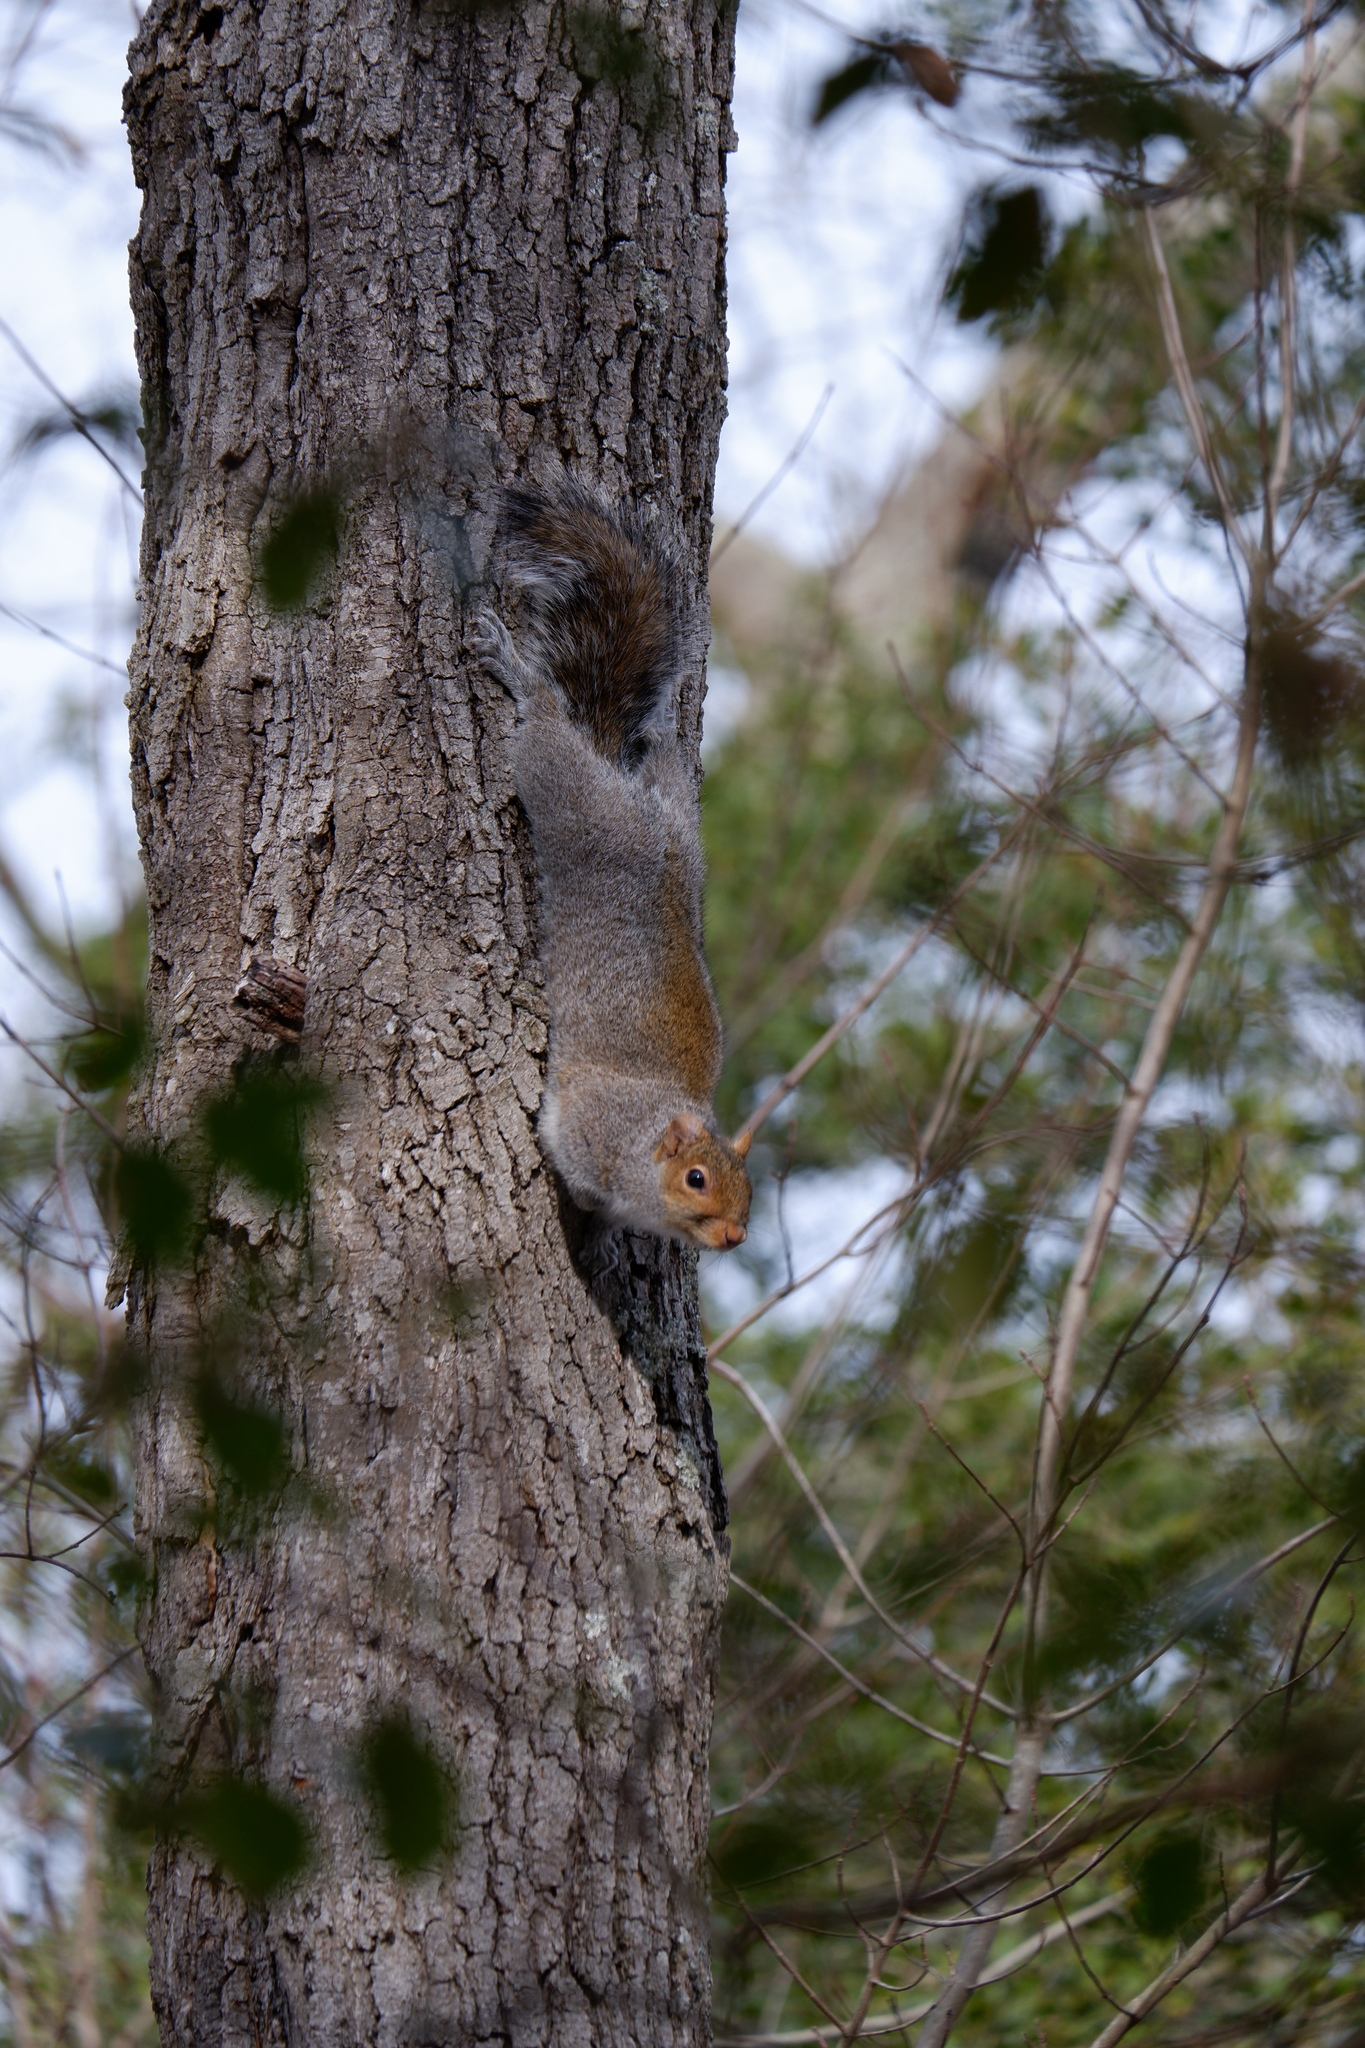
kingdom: Animalia
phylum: Chordata
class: Mammalia
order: Rodentia
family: Sciuridae
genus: Sciurus
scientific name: Sciurus carolinensis
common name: Eastern gray squirrel
